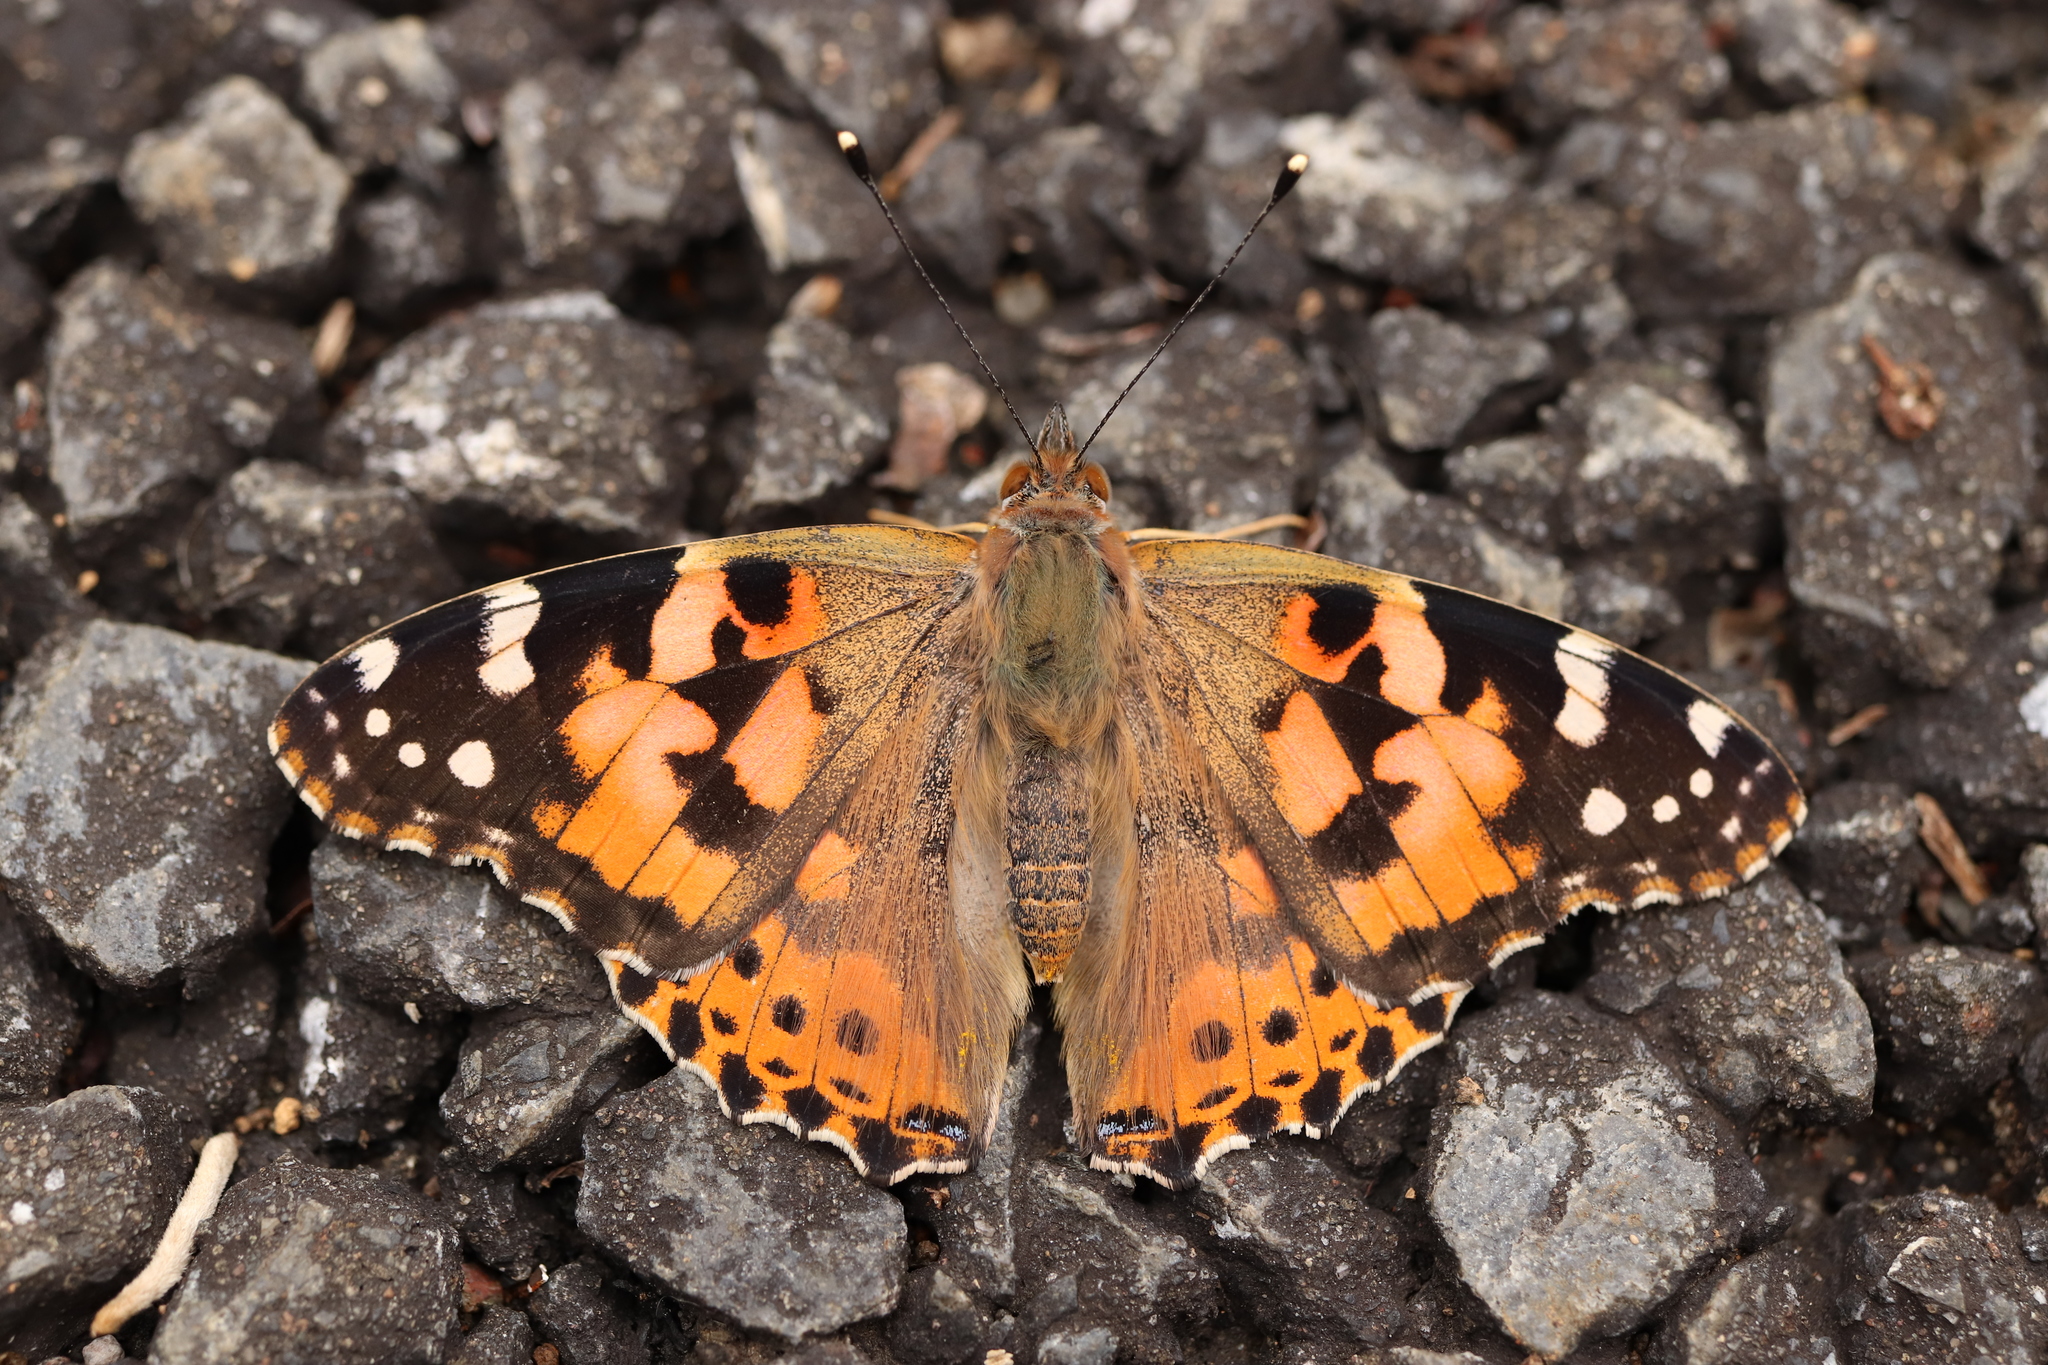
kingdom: Animalia
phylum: Arthropoda
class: Insecta
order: Lepidoptera
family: Nymphalidae
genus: Vanessa
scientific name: Vanessa cardui
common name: Painted lady
